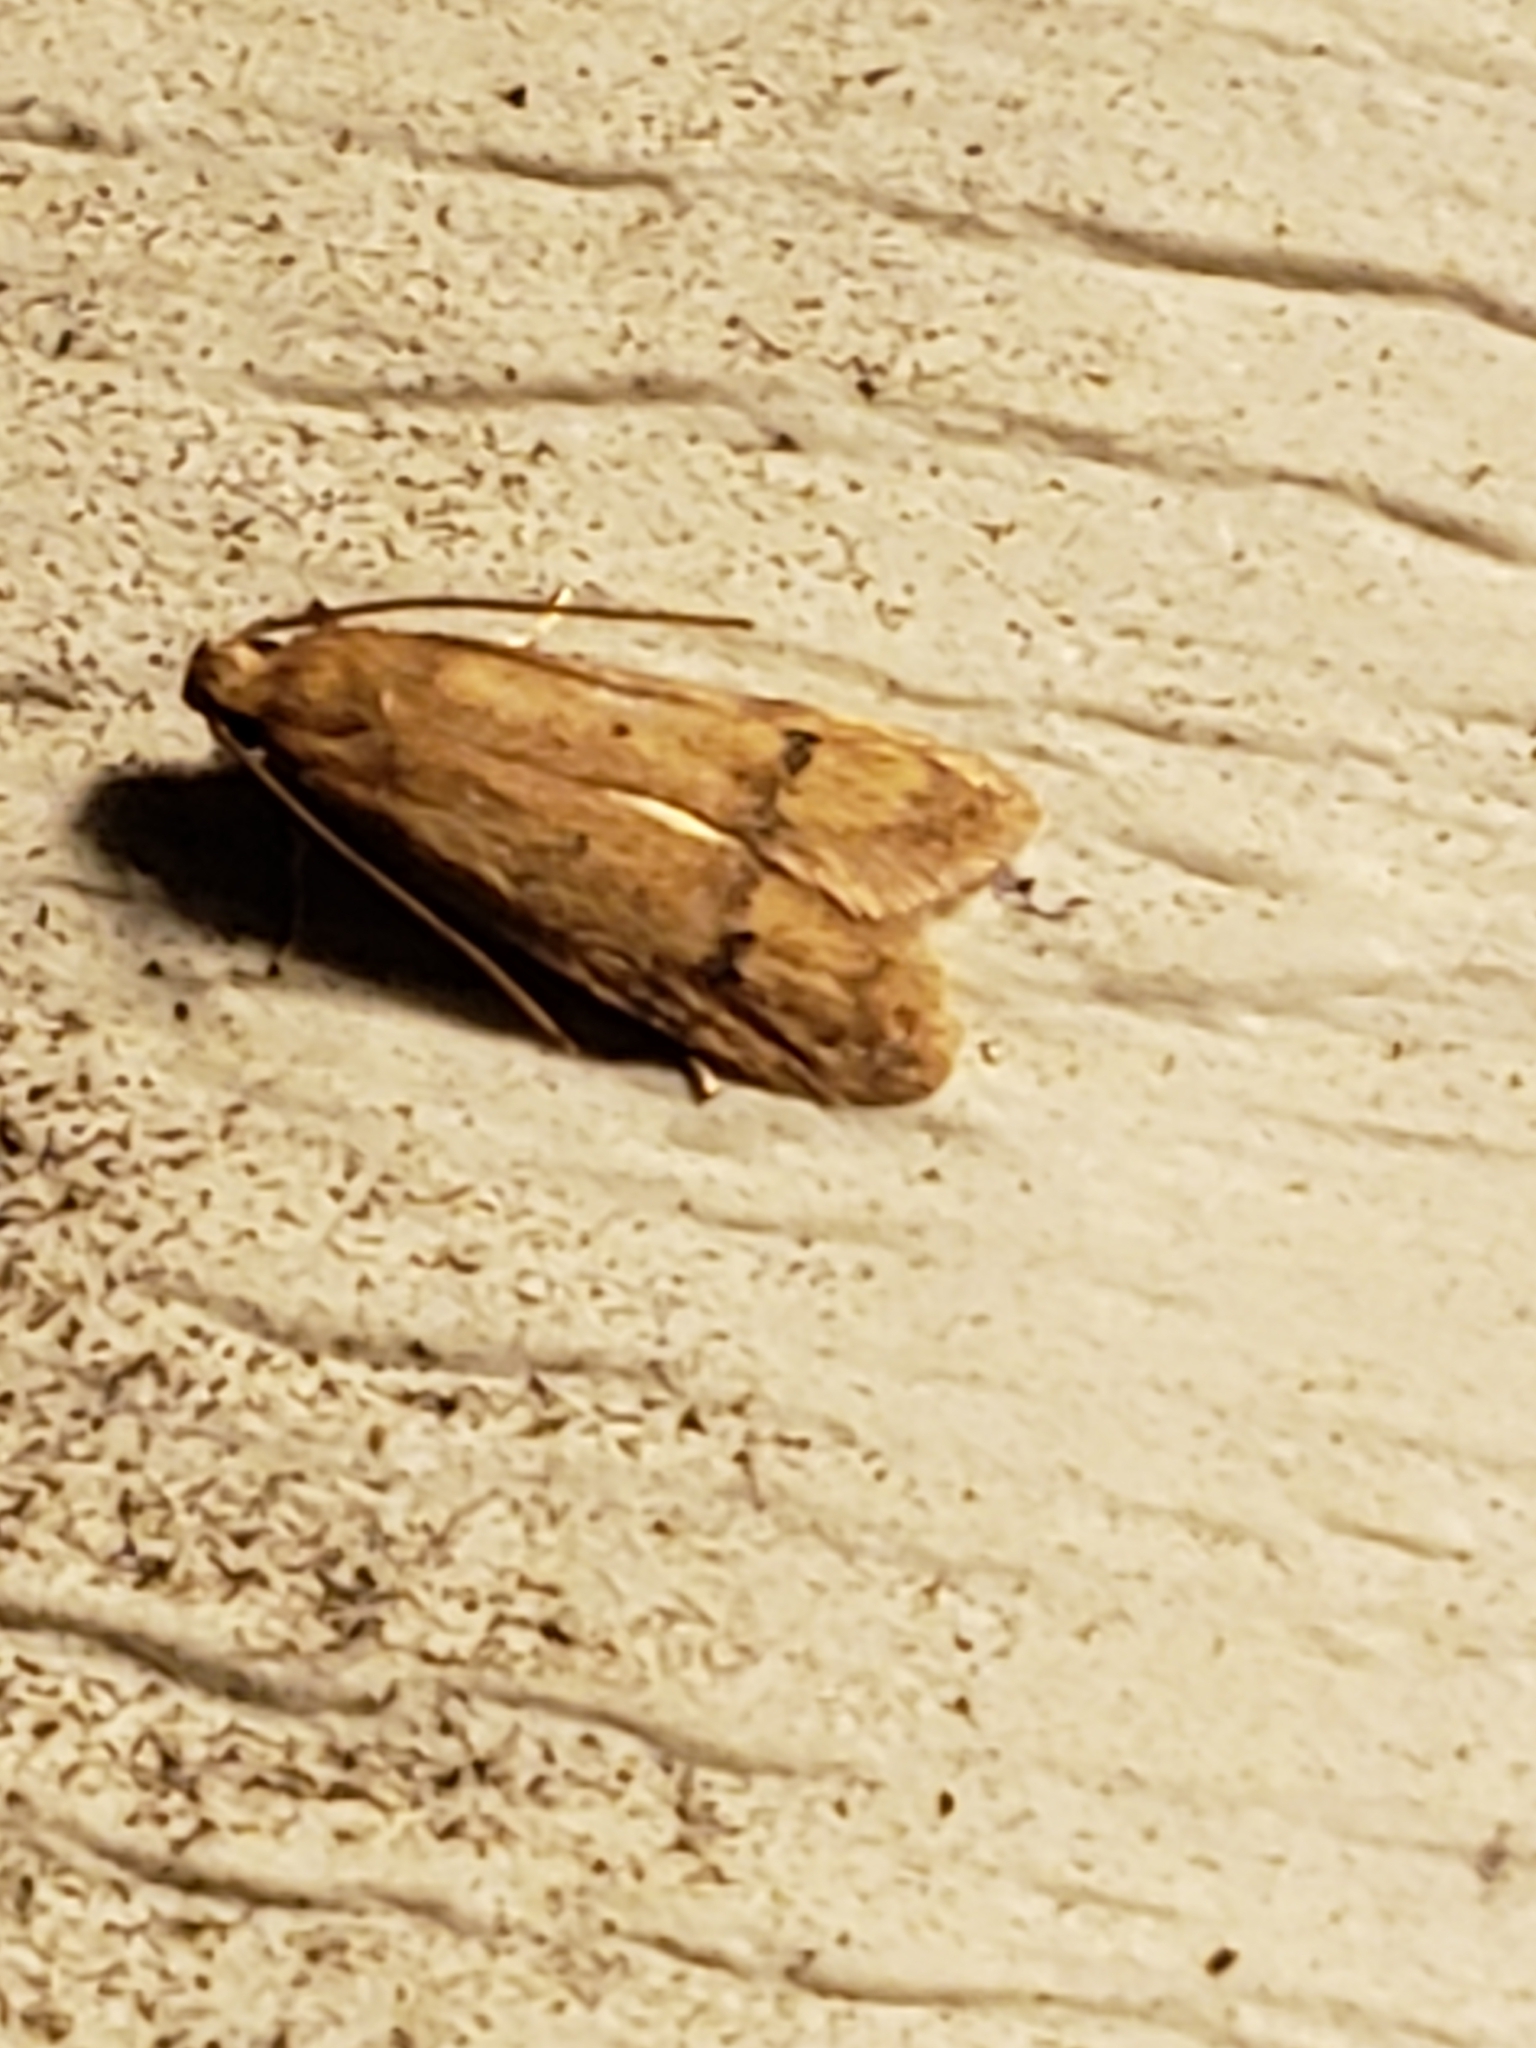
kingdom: Animalia
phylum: Arthropoda
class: Insecta
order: Lepidoptera
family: Autostichidae
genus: Gerdana
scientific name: Gerdana caritella
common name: Gerdana moth
